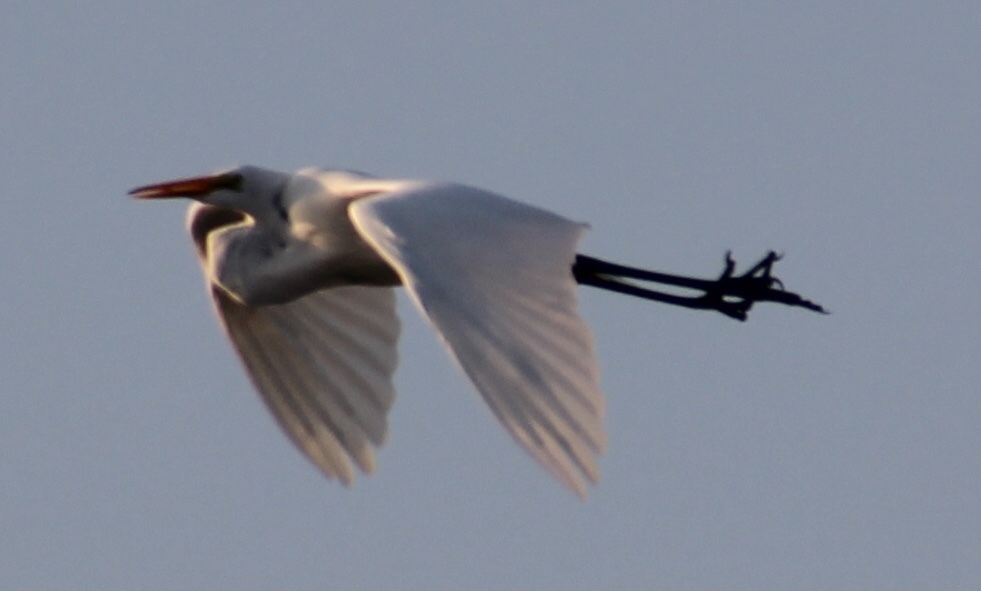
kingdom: Animalia
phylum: Chordata
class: Aves
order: Pelecaniformes
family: Ardeidae
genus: Ardea
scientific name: Ardea alba
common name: Great egret
